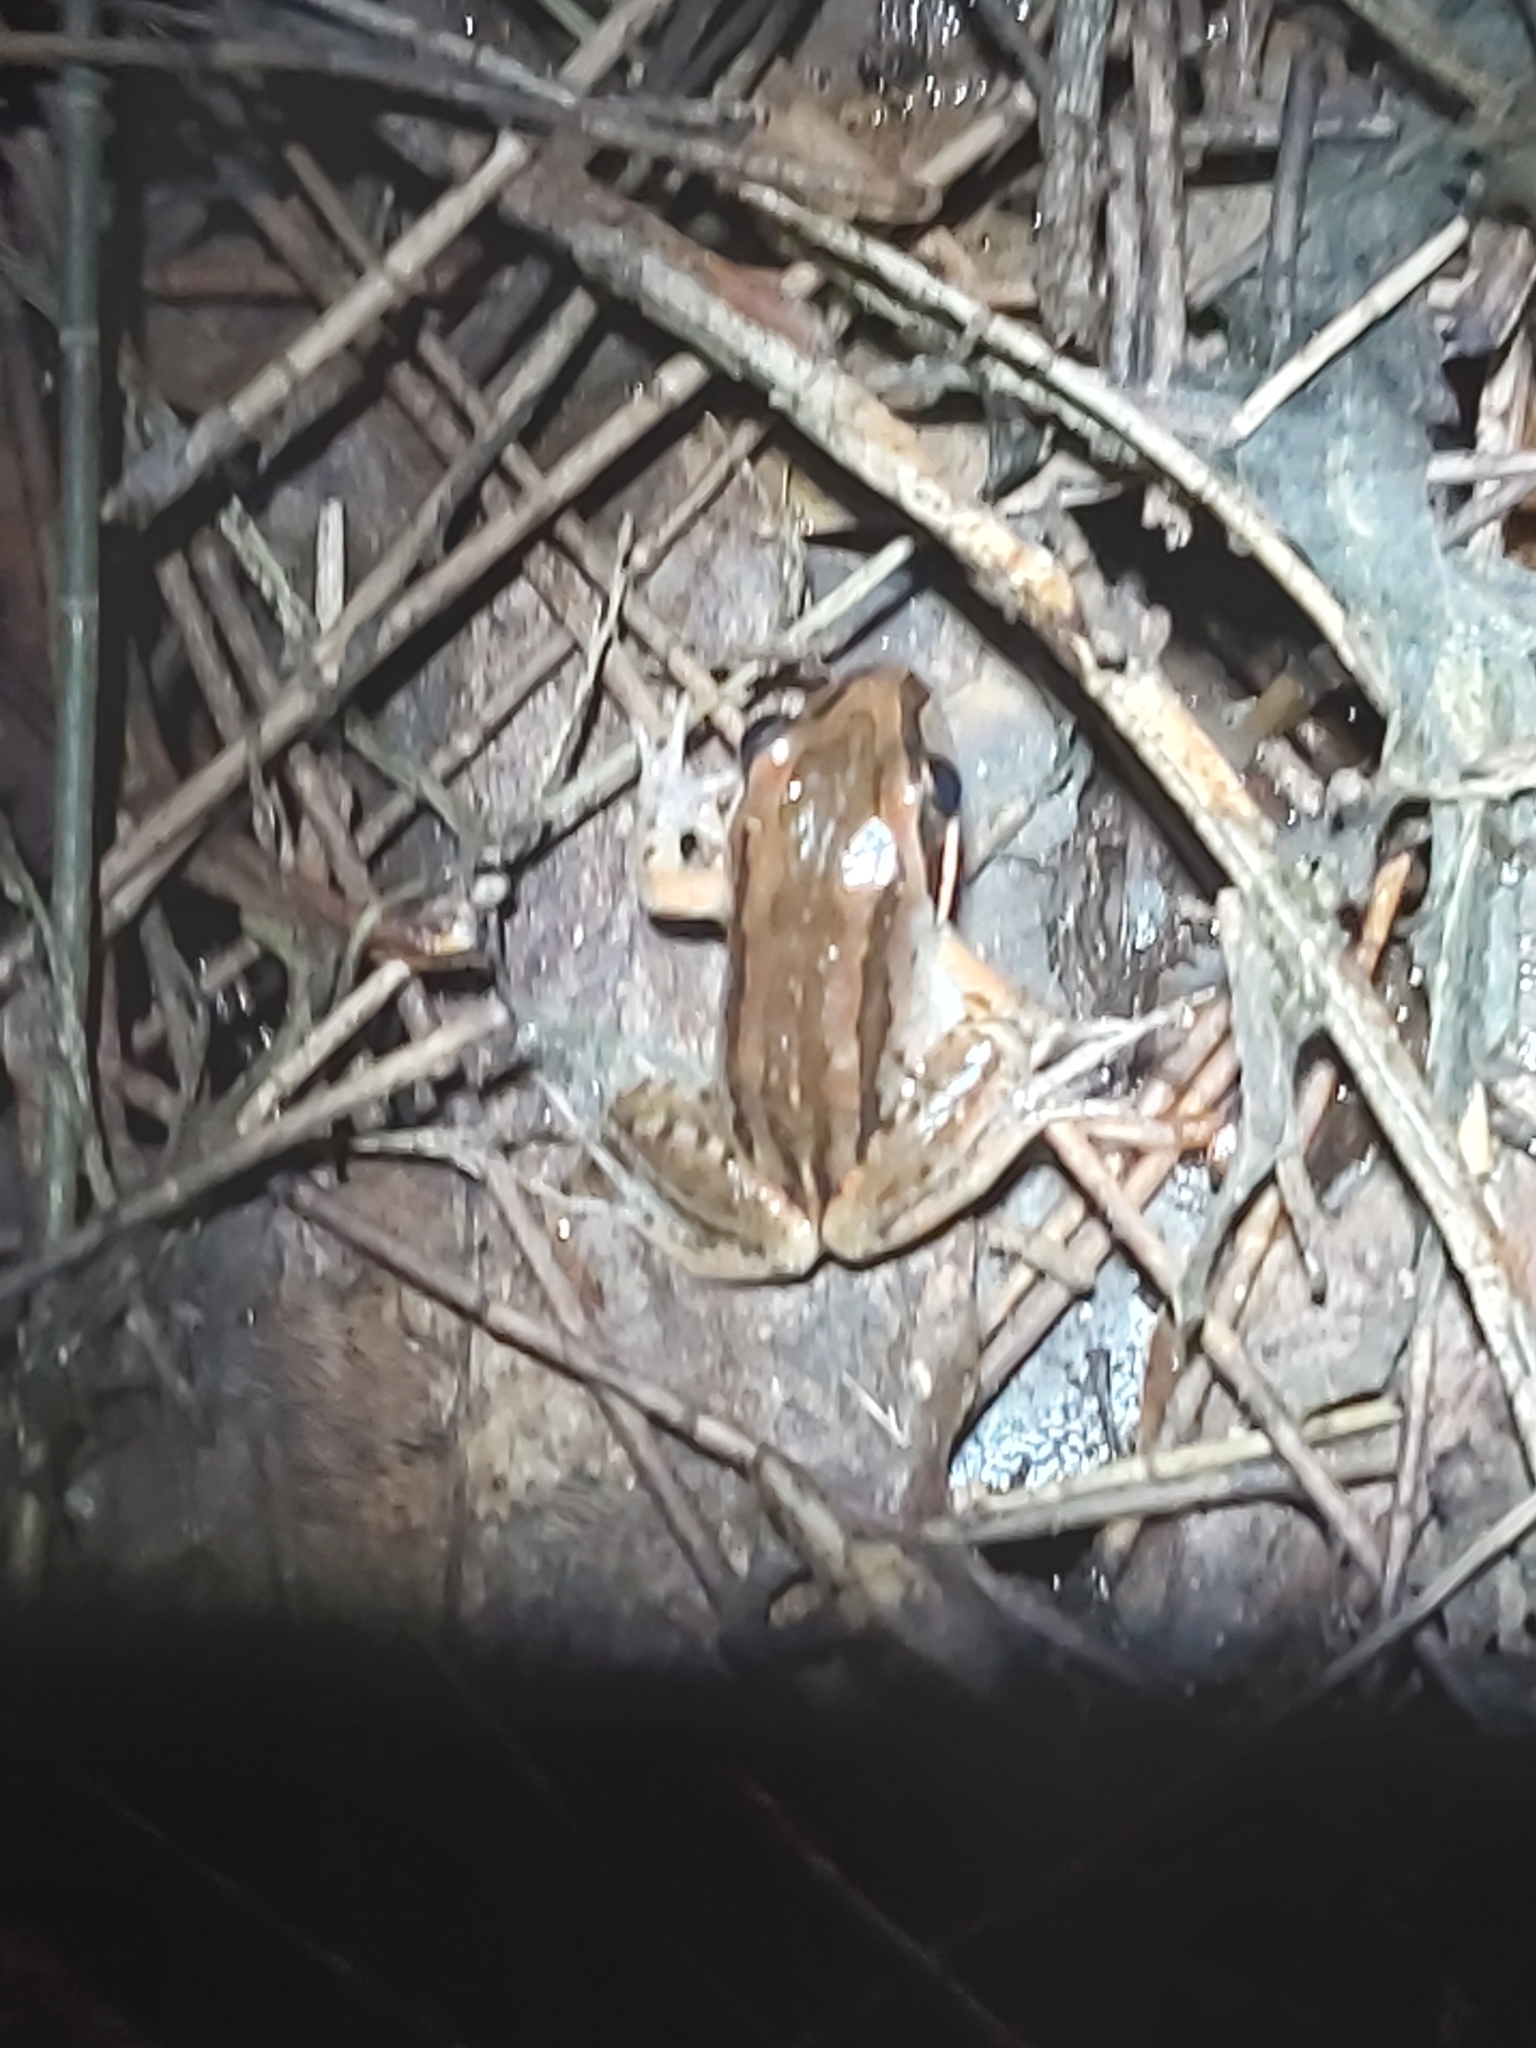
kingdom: Animalia
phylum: Chordata
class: Amphibia
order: Anura
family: Limnodynastidae
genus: Limnodynastes
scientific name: Limnodynastes peronii
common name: Brown frog
